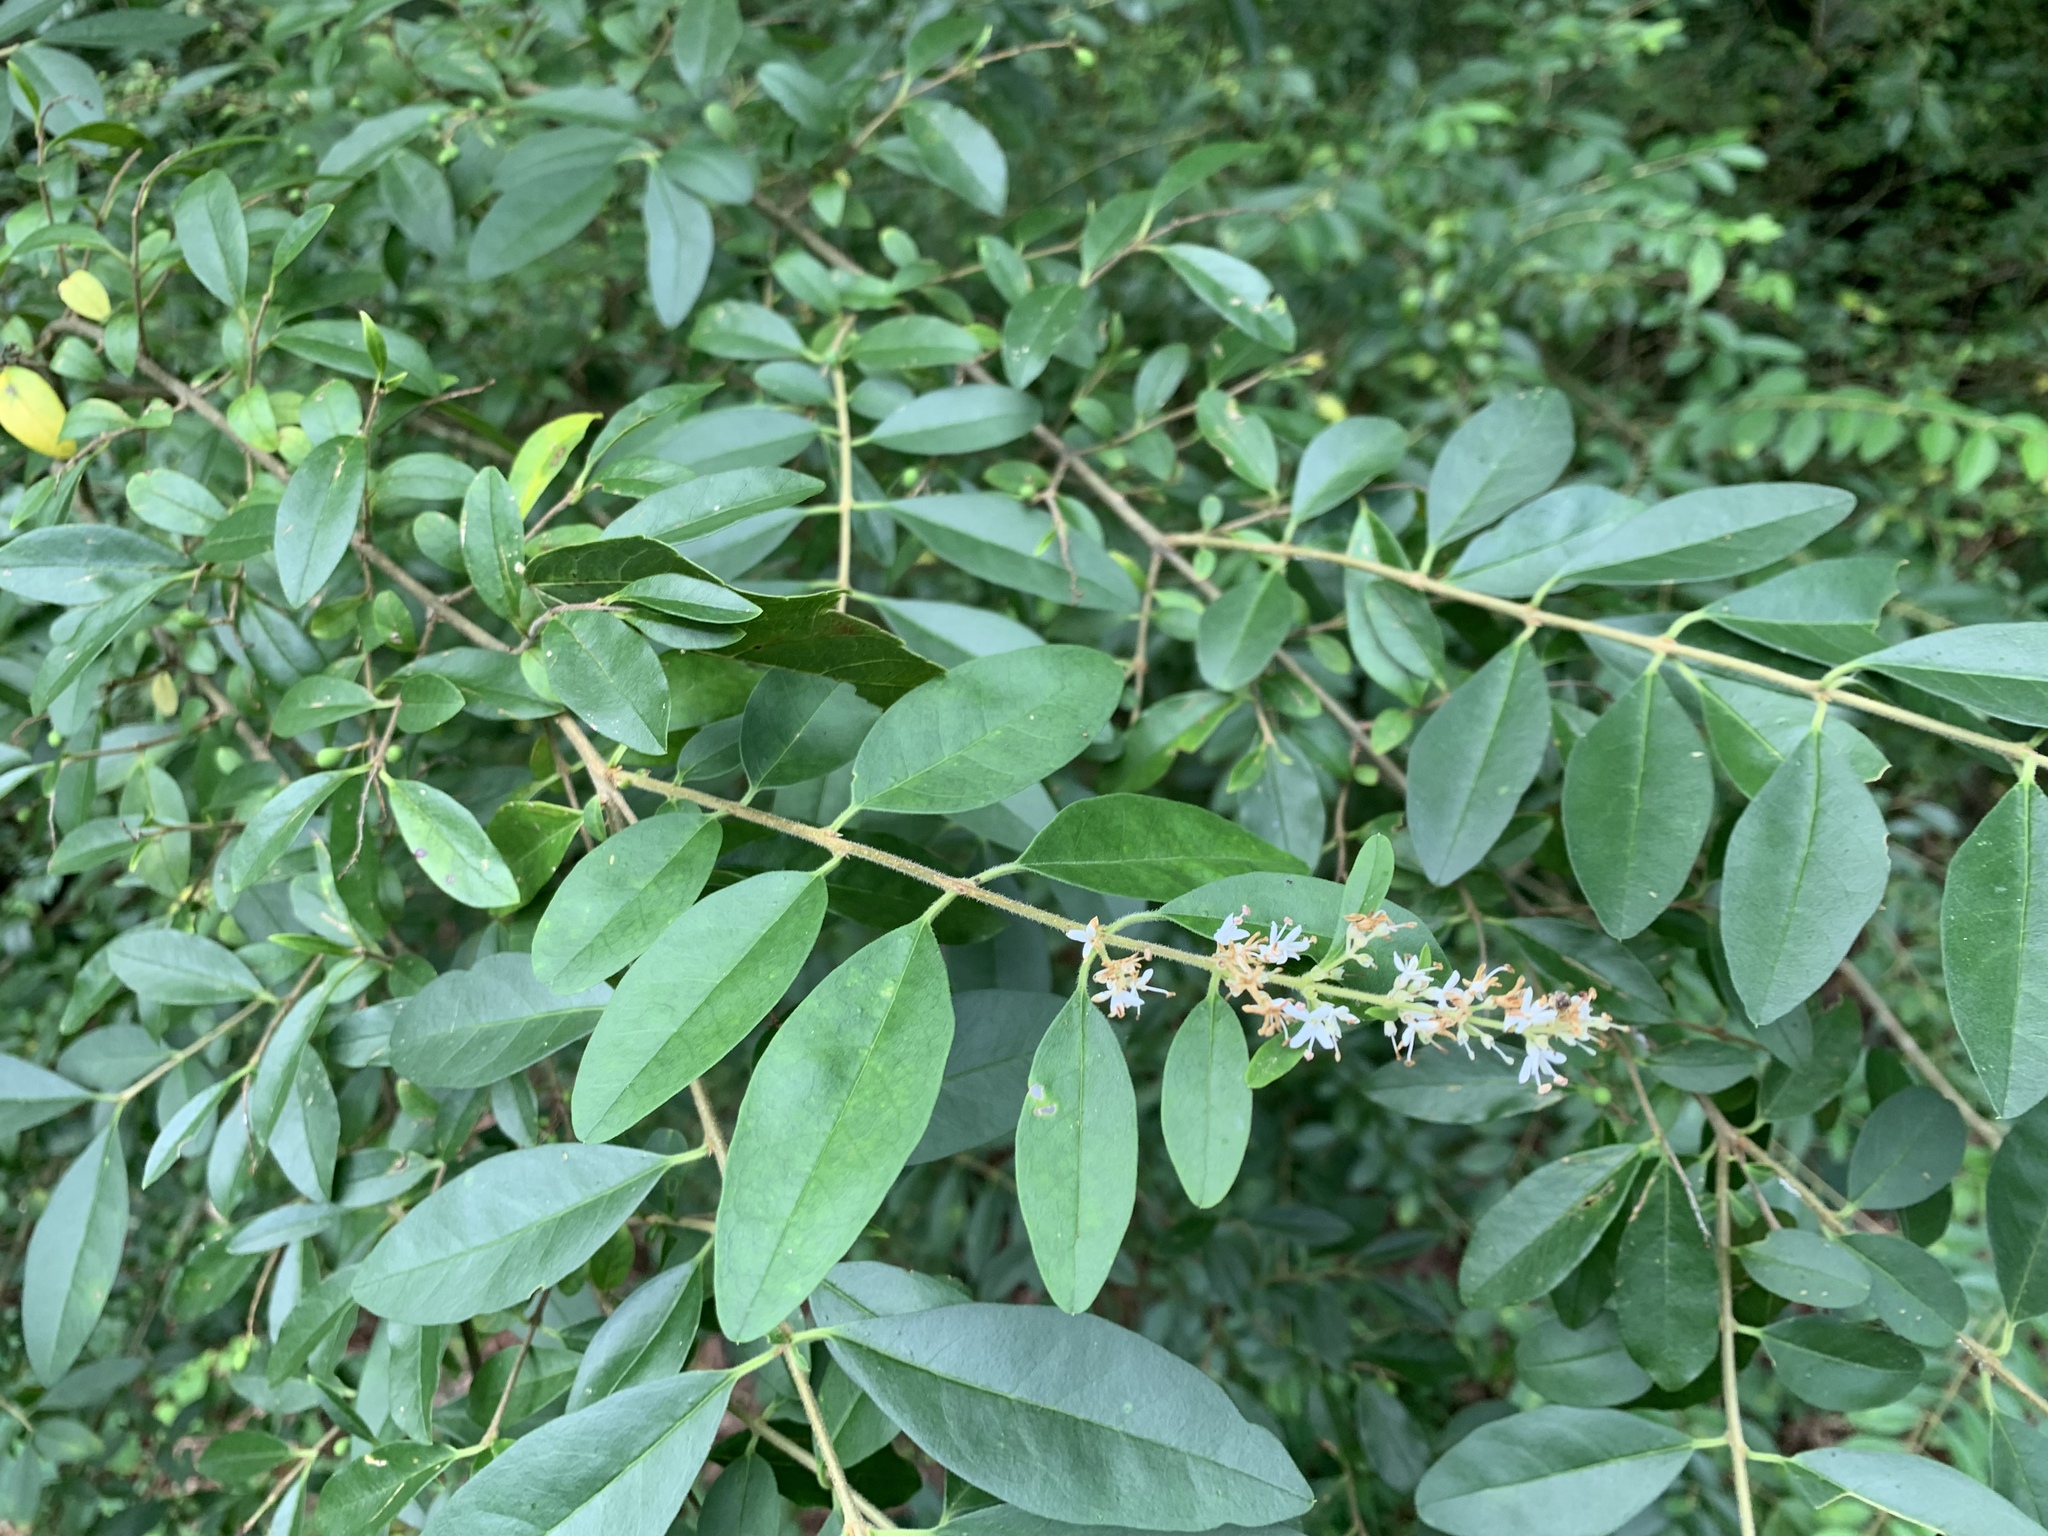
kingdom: Plantae
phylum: Tracheophyta
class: Magnoliopsida
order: Lamiales
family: Oleaceae
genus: Ligustrum
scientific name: Ligustrum sinense
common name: Chinese privet
